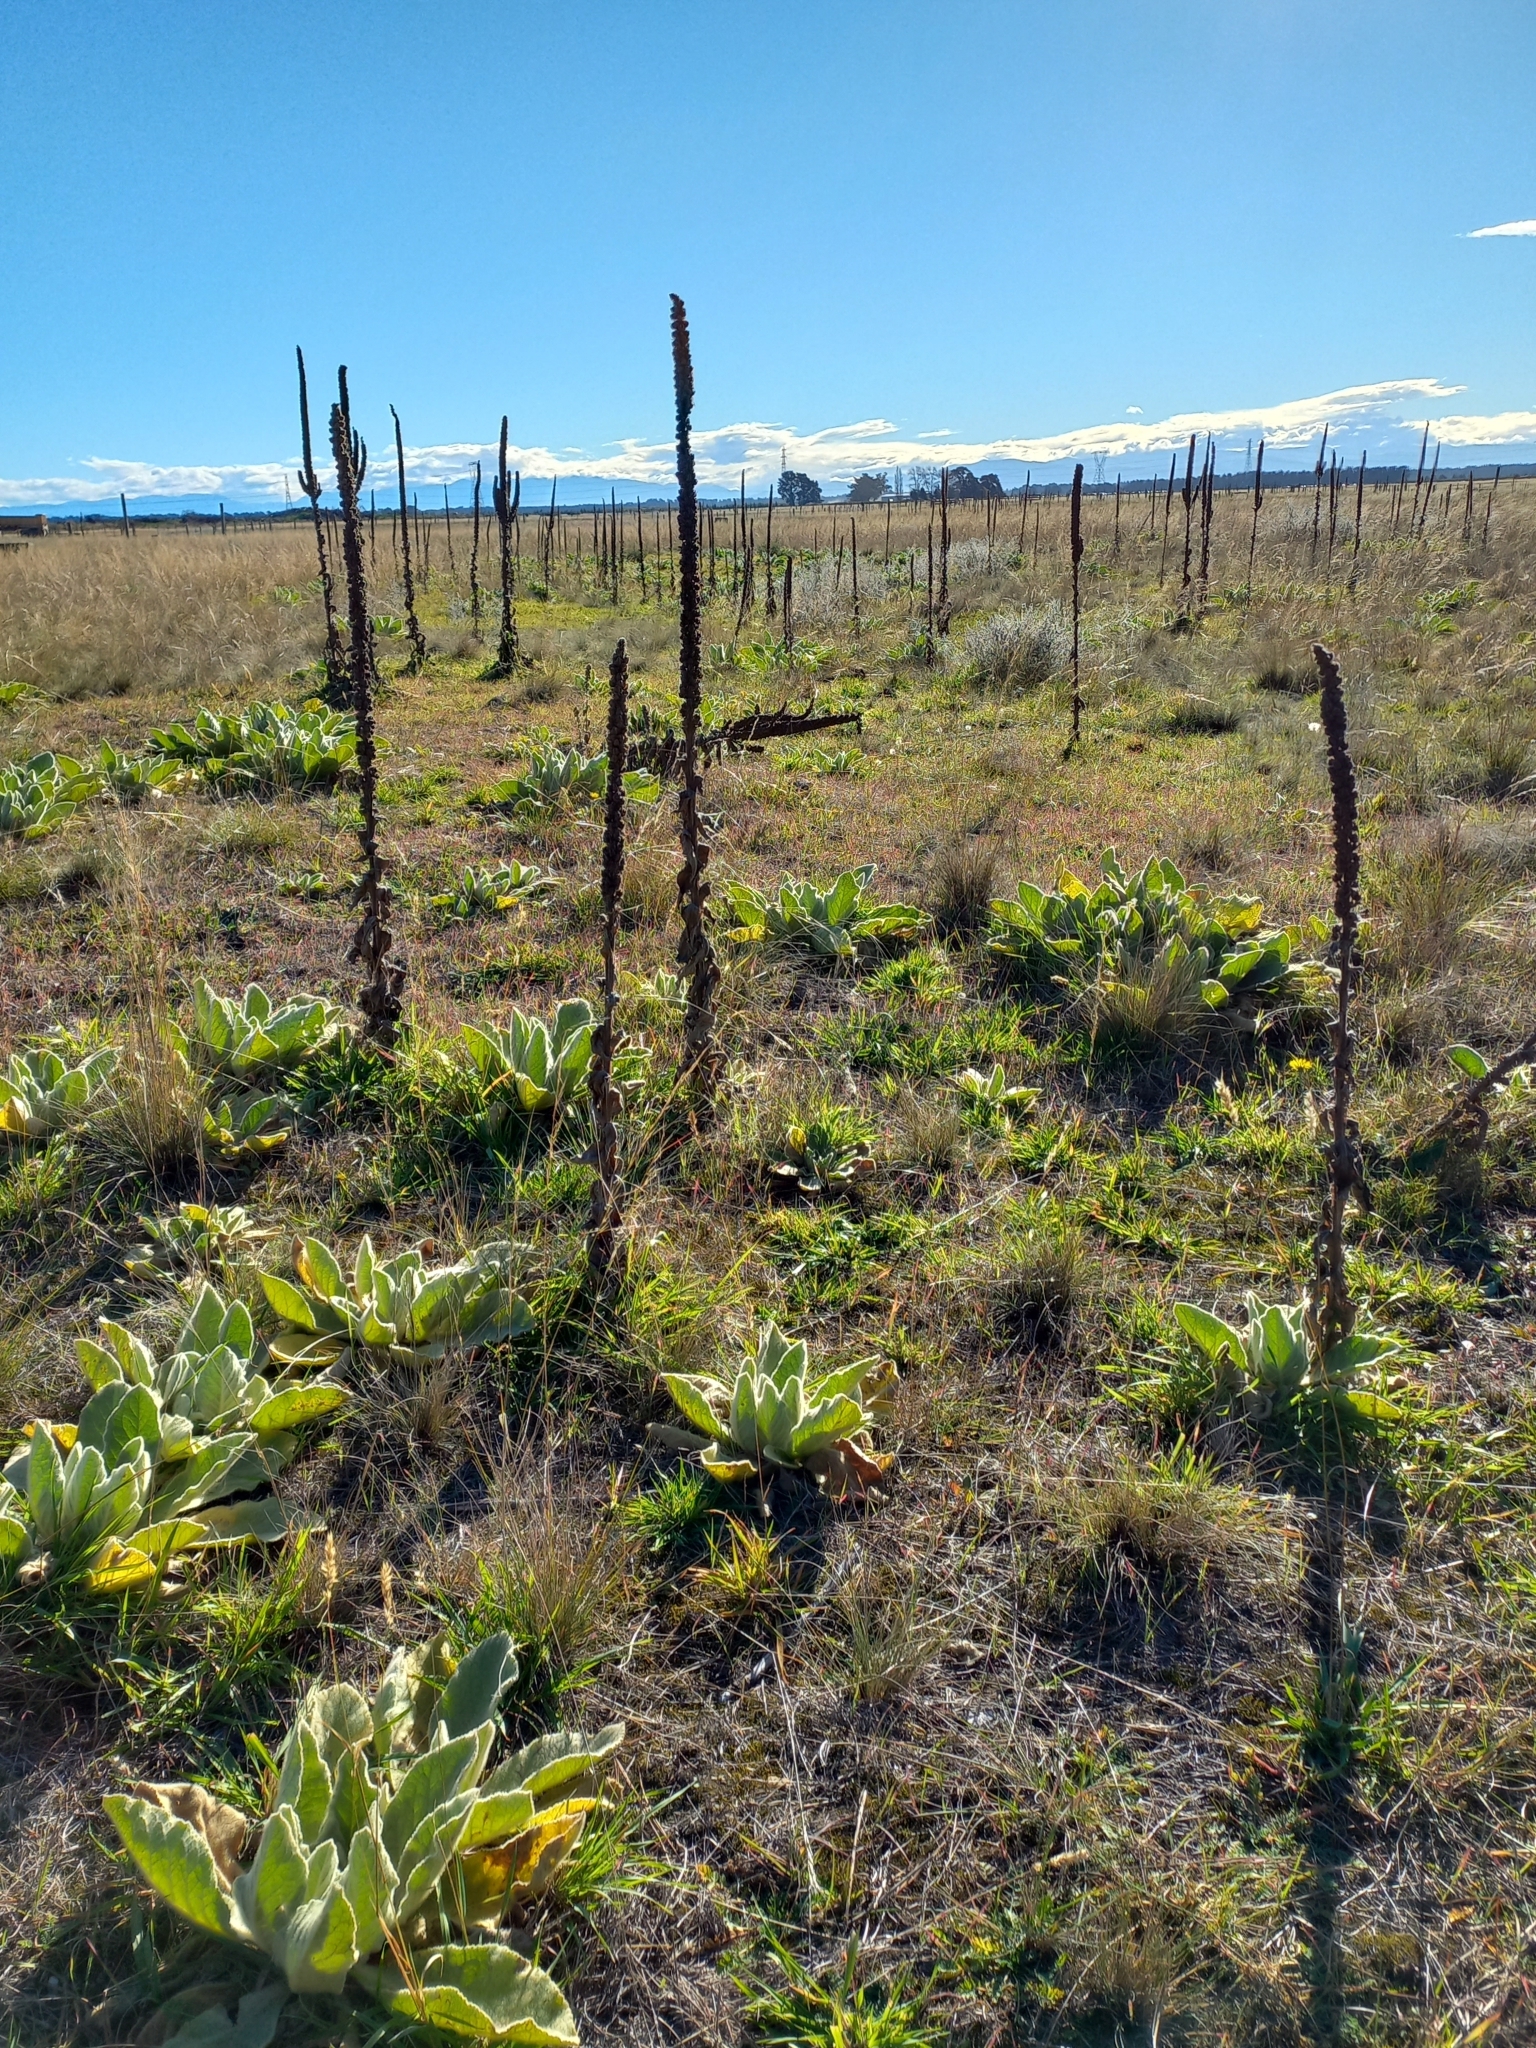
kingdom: Plantae
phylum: Tracheophyta
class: Magnoliopsida
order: Lamiales
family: Scrophulariaceae
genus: Verbascum
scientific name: Verbascum thapsus
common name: Common mullein
